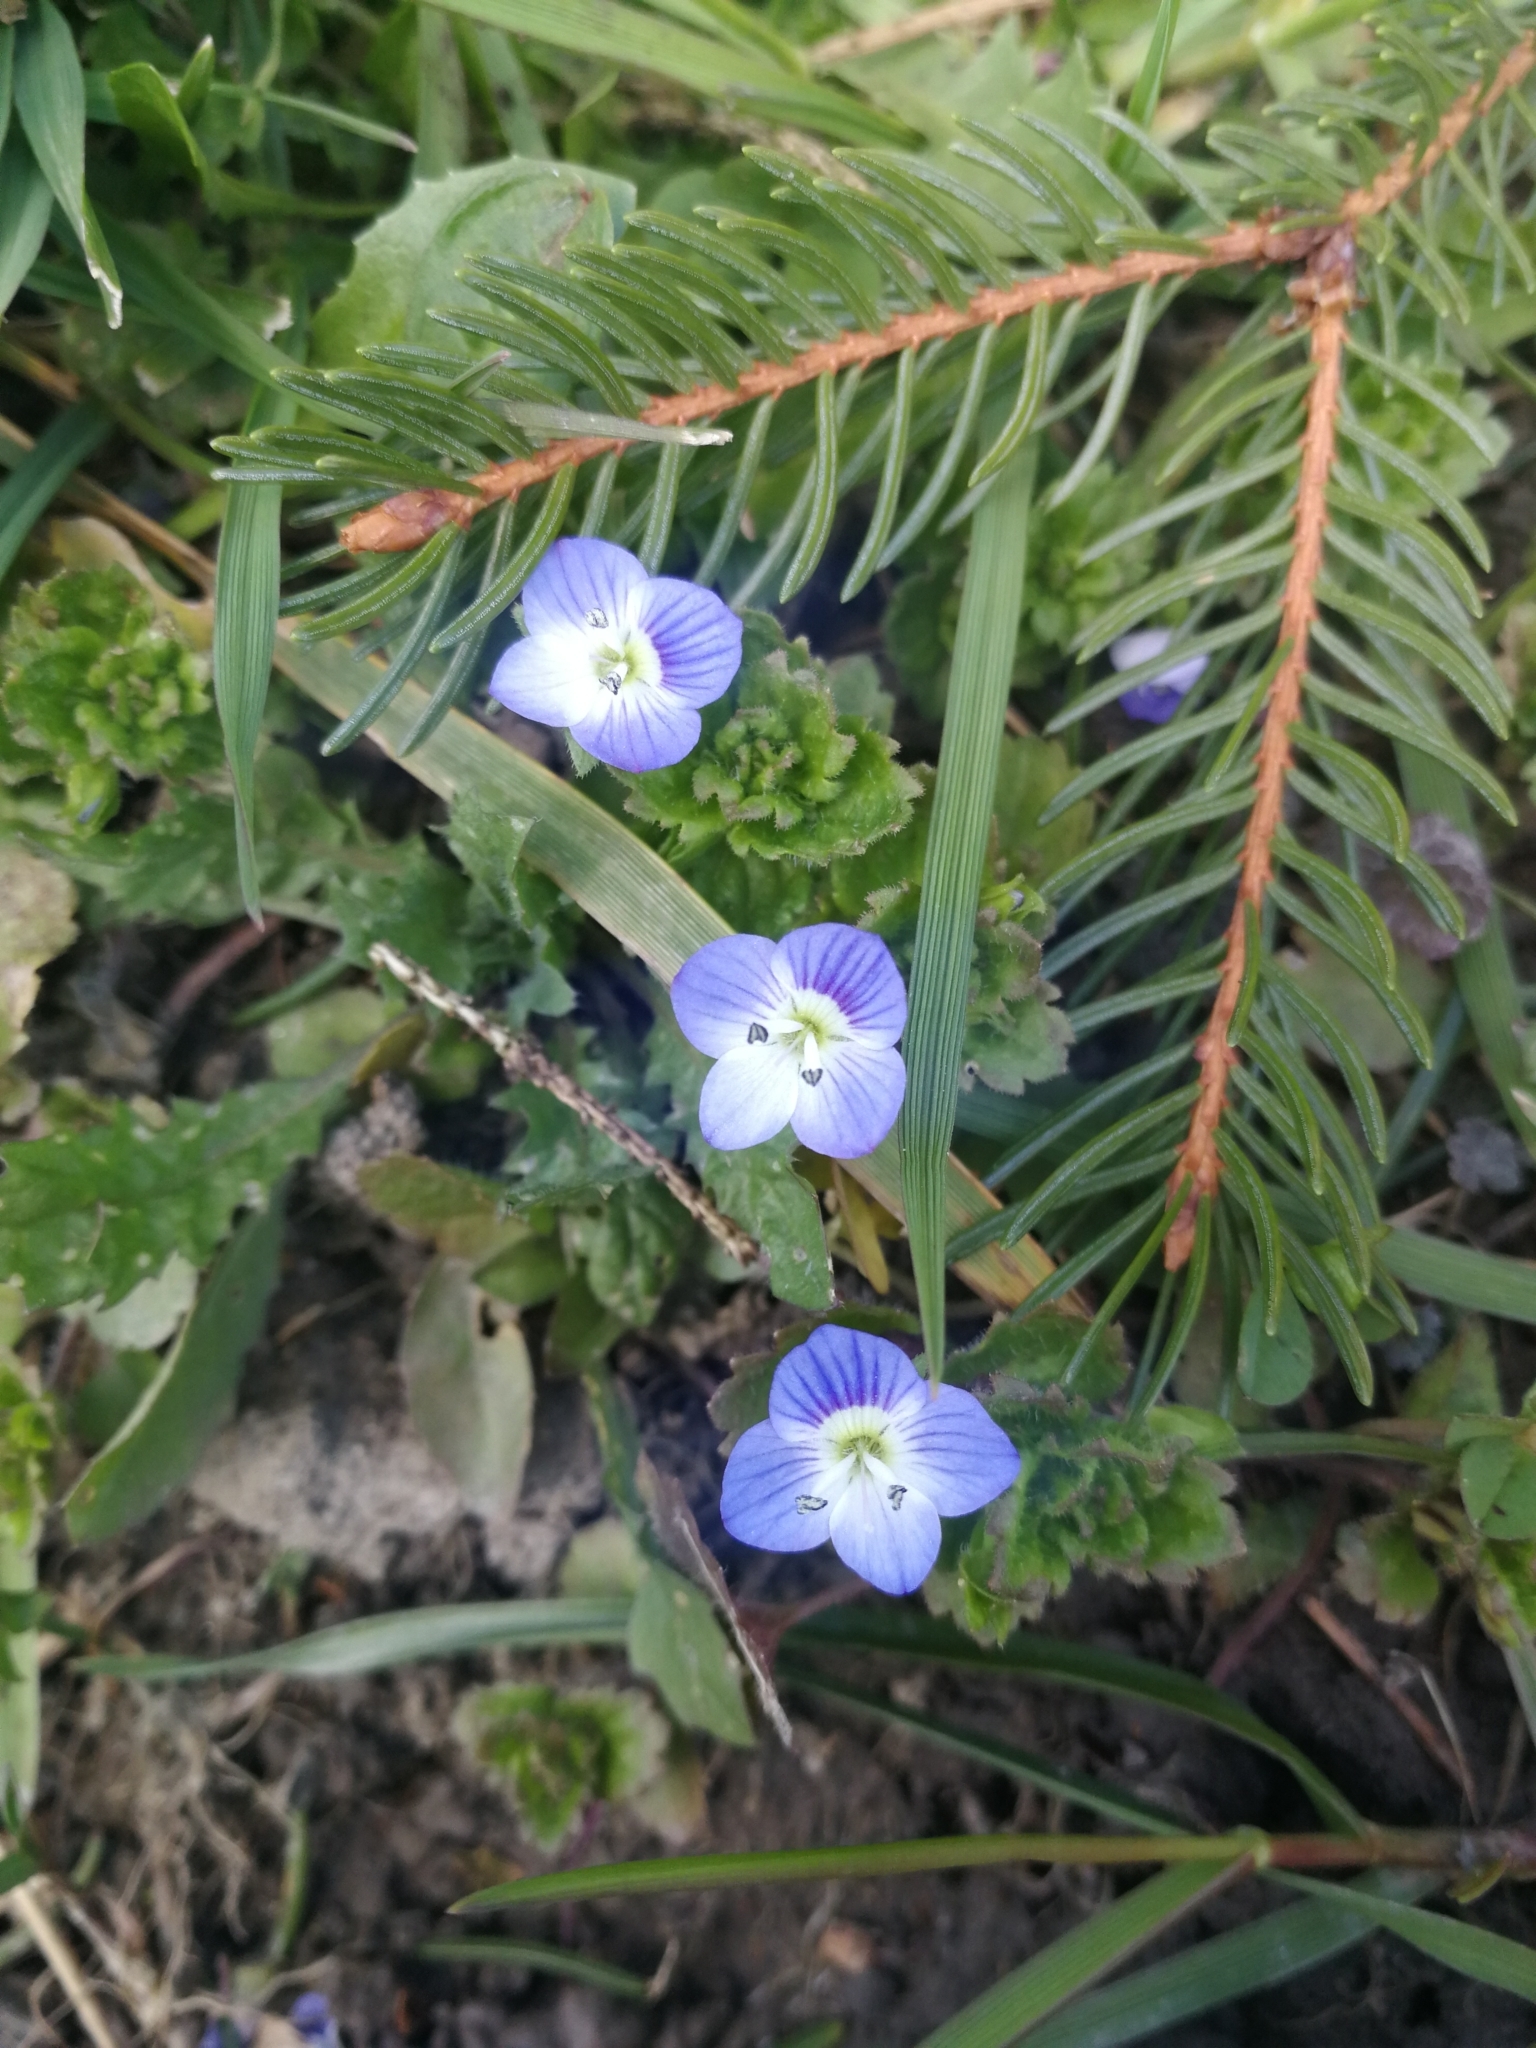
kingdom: Plantae
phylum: Tracheophyta
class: Magnoliopsida
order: Lamiales
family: Plantaginaceae
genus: Veronica
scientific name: Veronica persica
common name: Common field-speedwell
